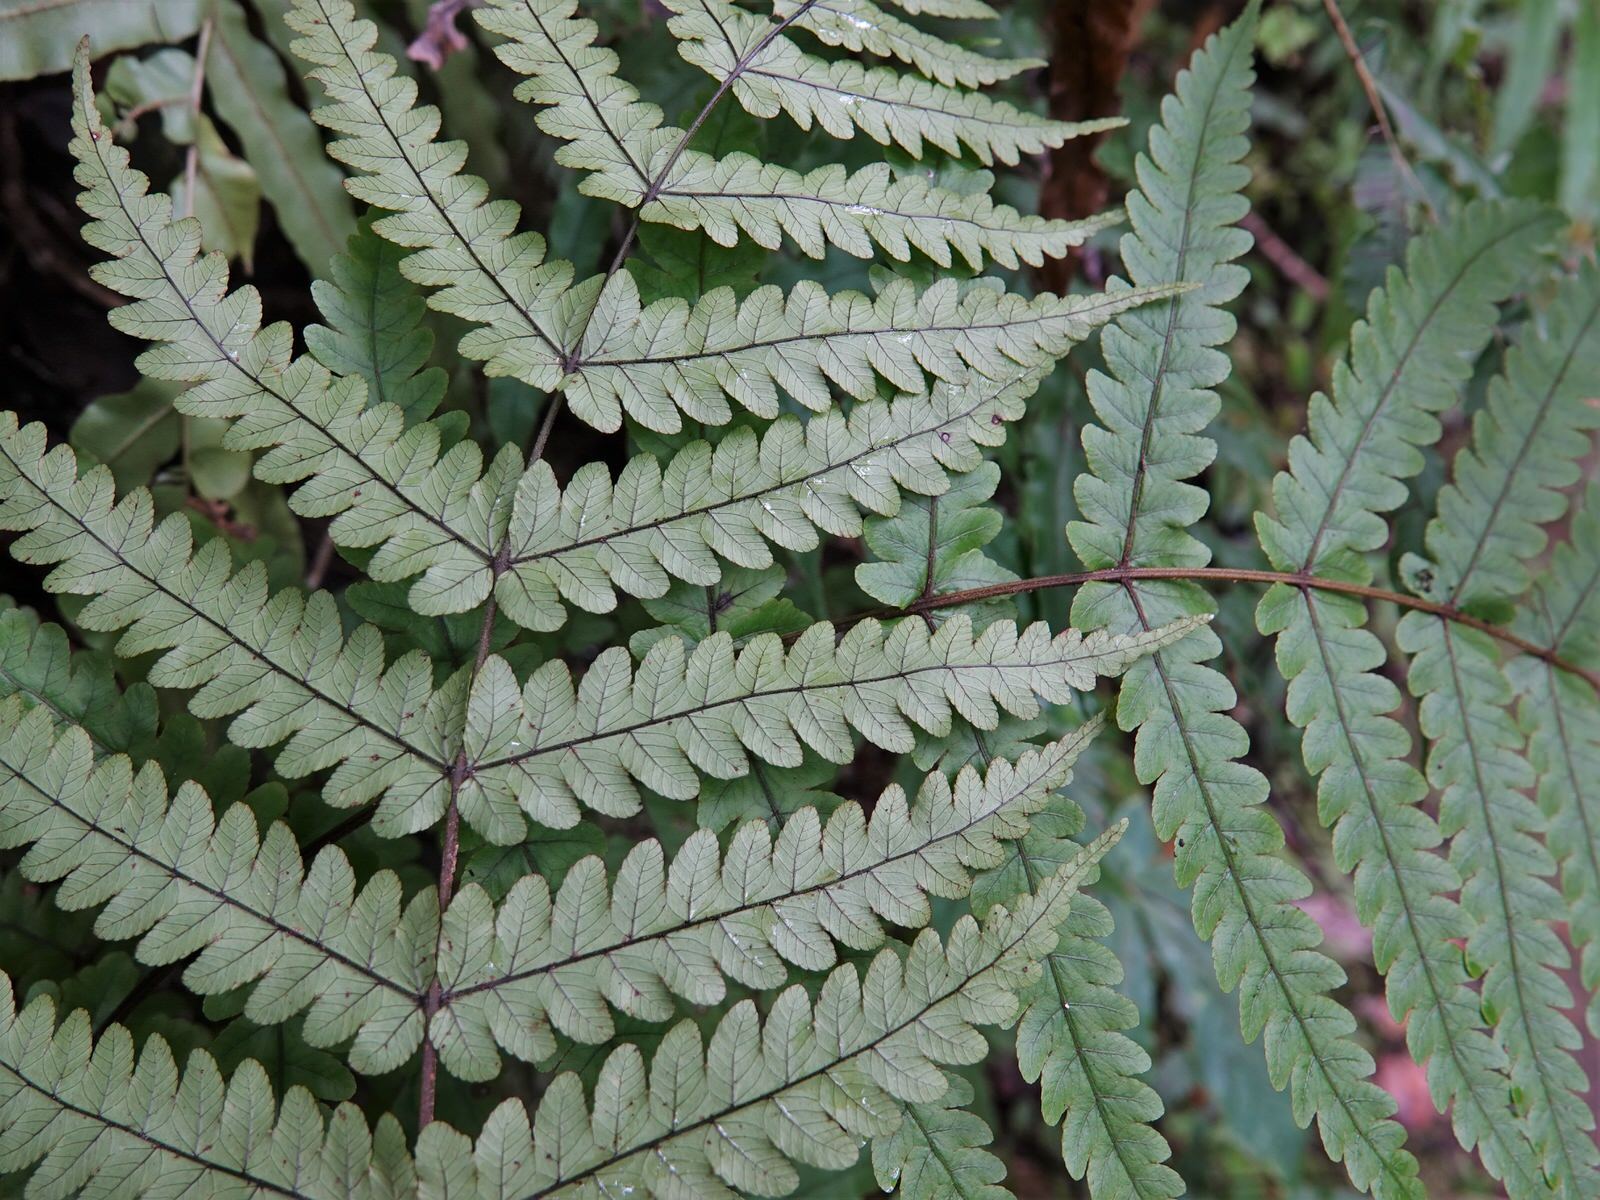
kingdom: Plantae
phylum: Tracheophyta
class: Polypodiopsida
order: Polypodiales
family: Thelypteridaceae
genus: Pakau
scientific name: Pakau pennigera
